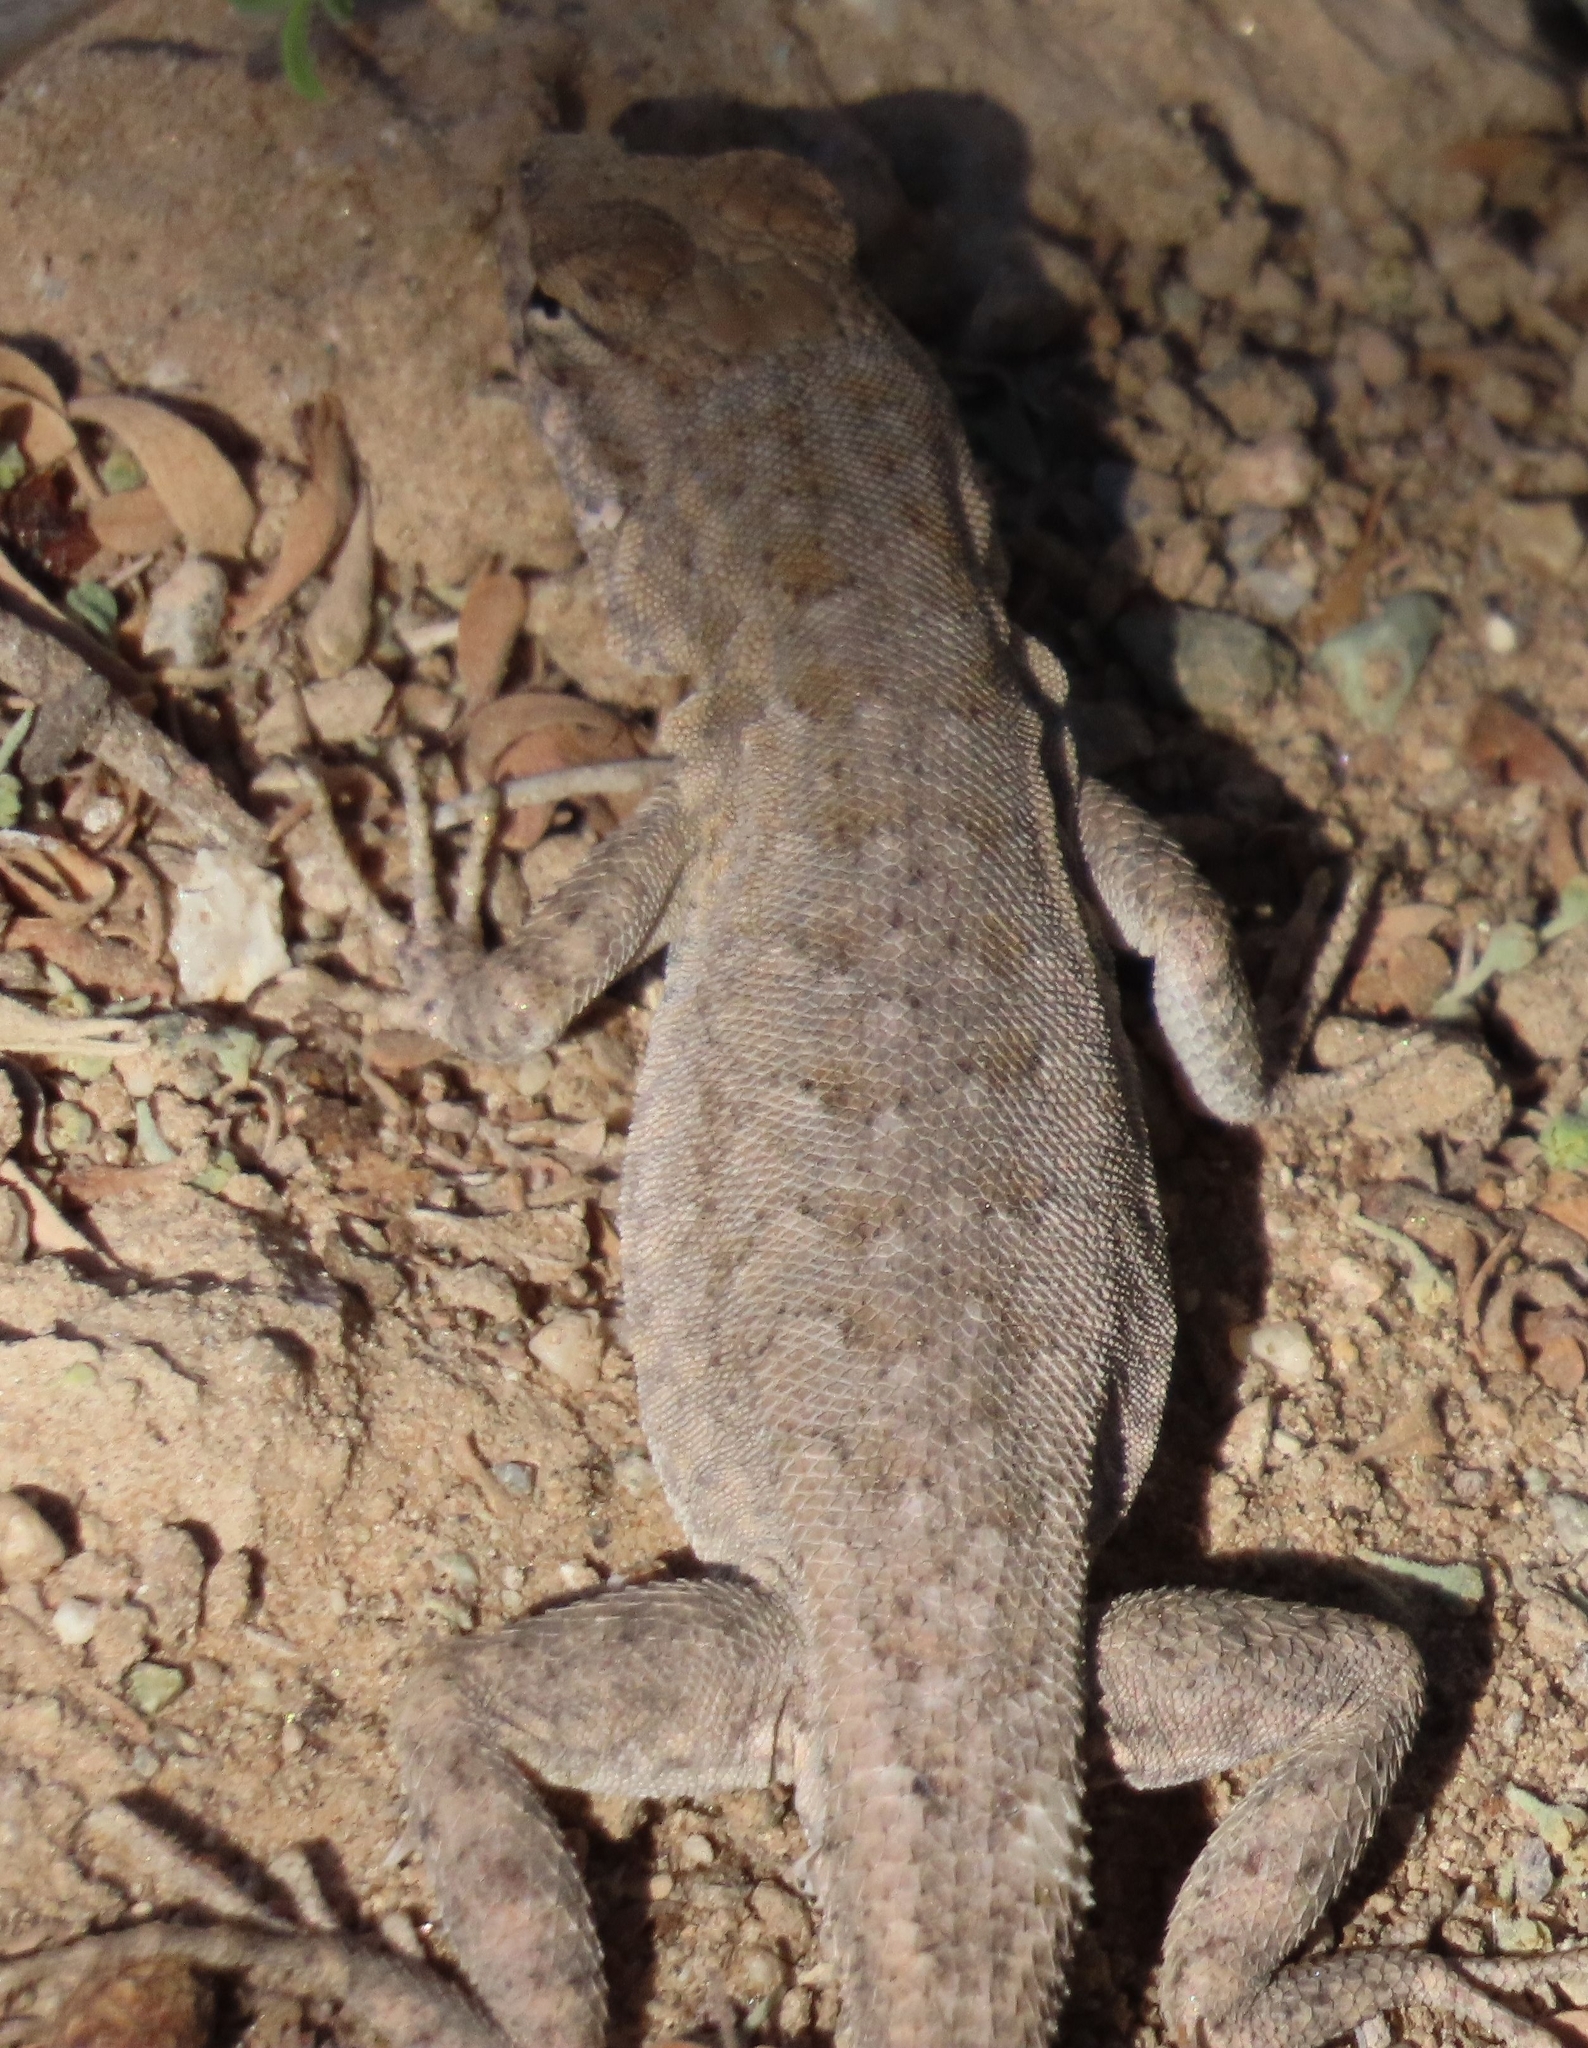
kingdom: Animalia
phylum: Chordata
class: Squamata
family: Phrynosomatidae
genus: Uta
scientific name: Uta stansburiana
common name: Side-blotched lizard
